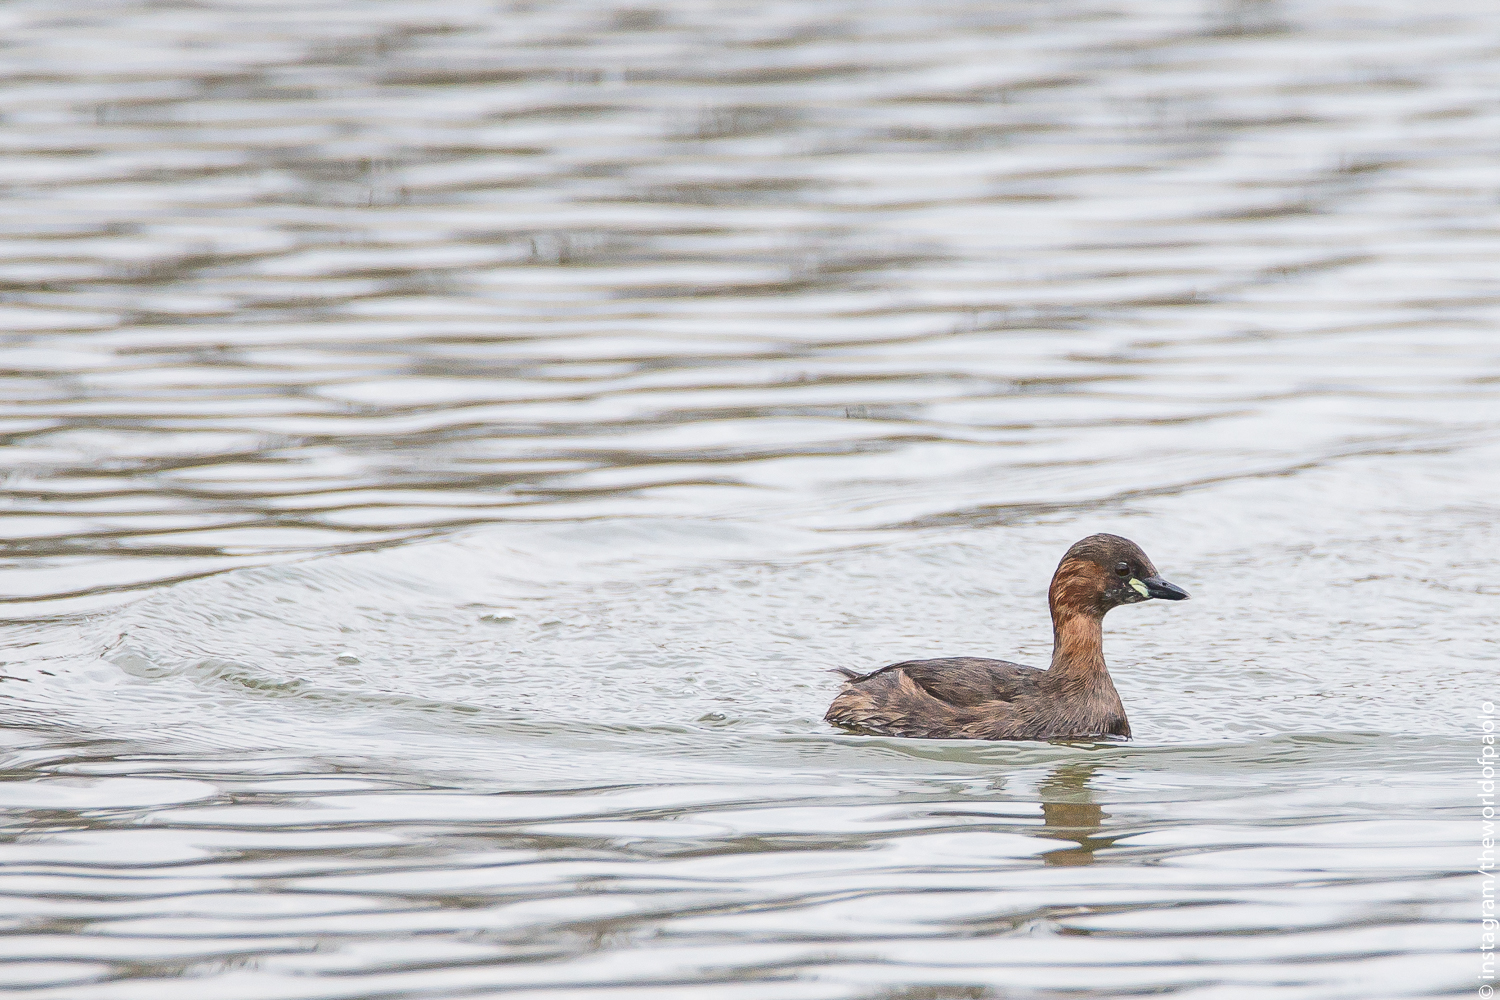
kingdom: Animalia
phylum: Chordata
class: Aves
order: Podicipediformes
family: Podicipedidae
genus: Tachybaptus
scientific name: Tachybaptus ruficollis
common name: Little grebe
